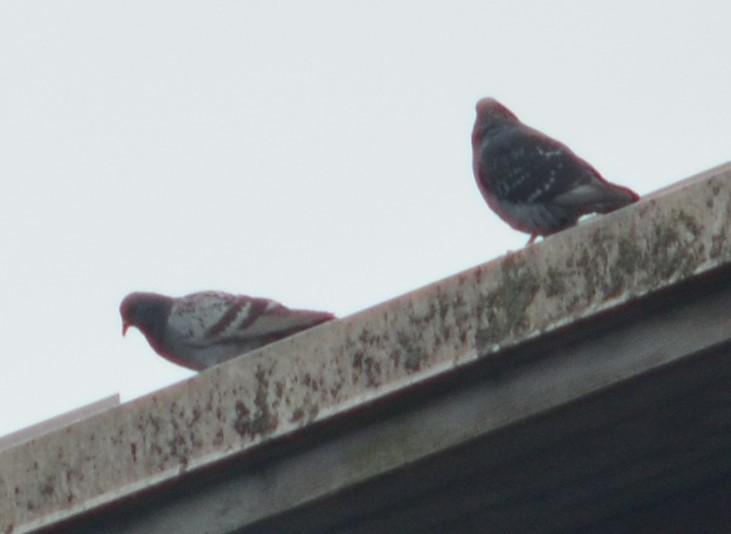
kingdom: Animalia
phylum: Chordata
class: Aves
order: Columbiformes
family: Columbidae
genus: Columba
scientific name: Columba livia
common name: Rock pigeon
